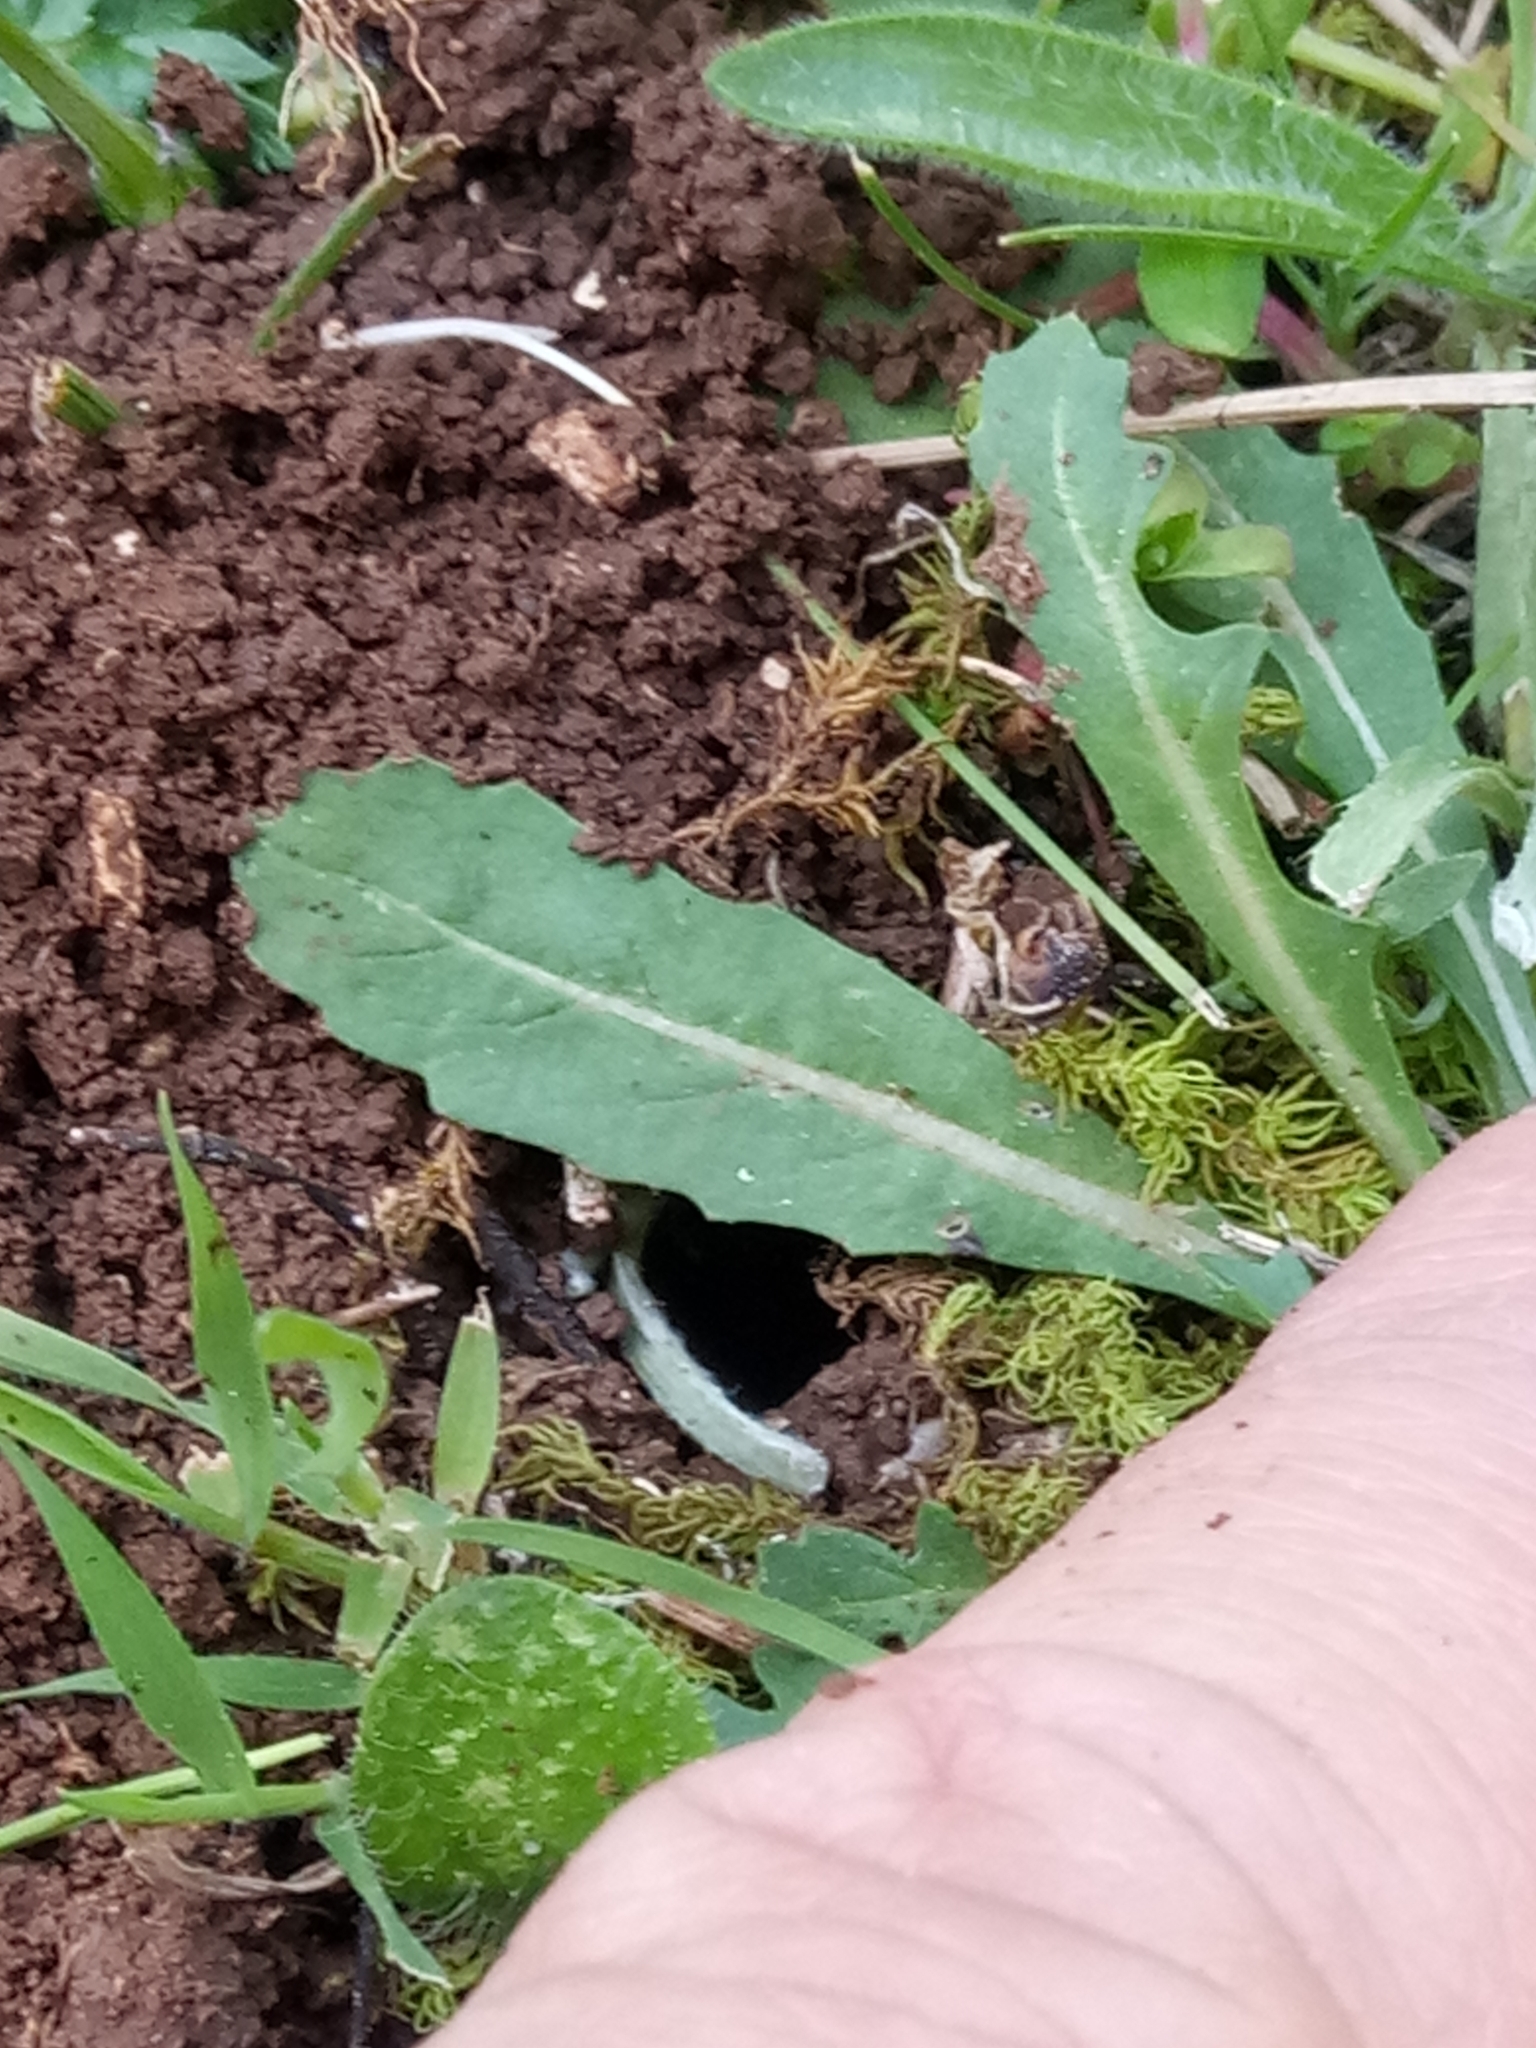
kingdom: Plantae
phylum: Tracheophyta
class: Magnoliopsida
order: Brassicales
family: Brassicaceae
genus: Diplotaxis
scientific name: Diplotaxis muralis
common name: Annual wall-rocket
